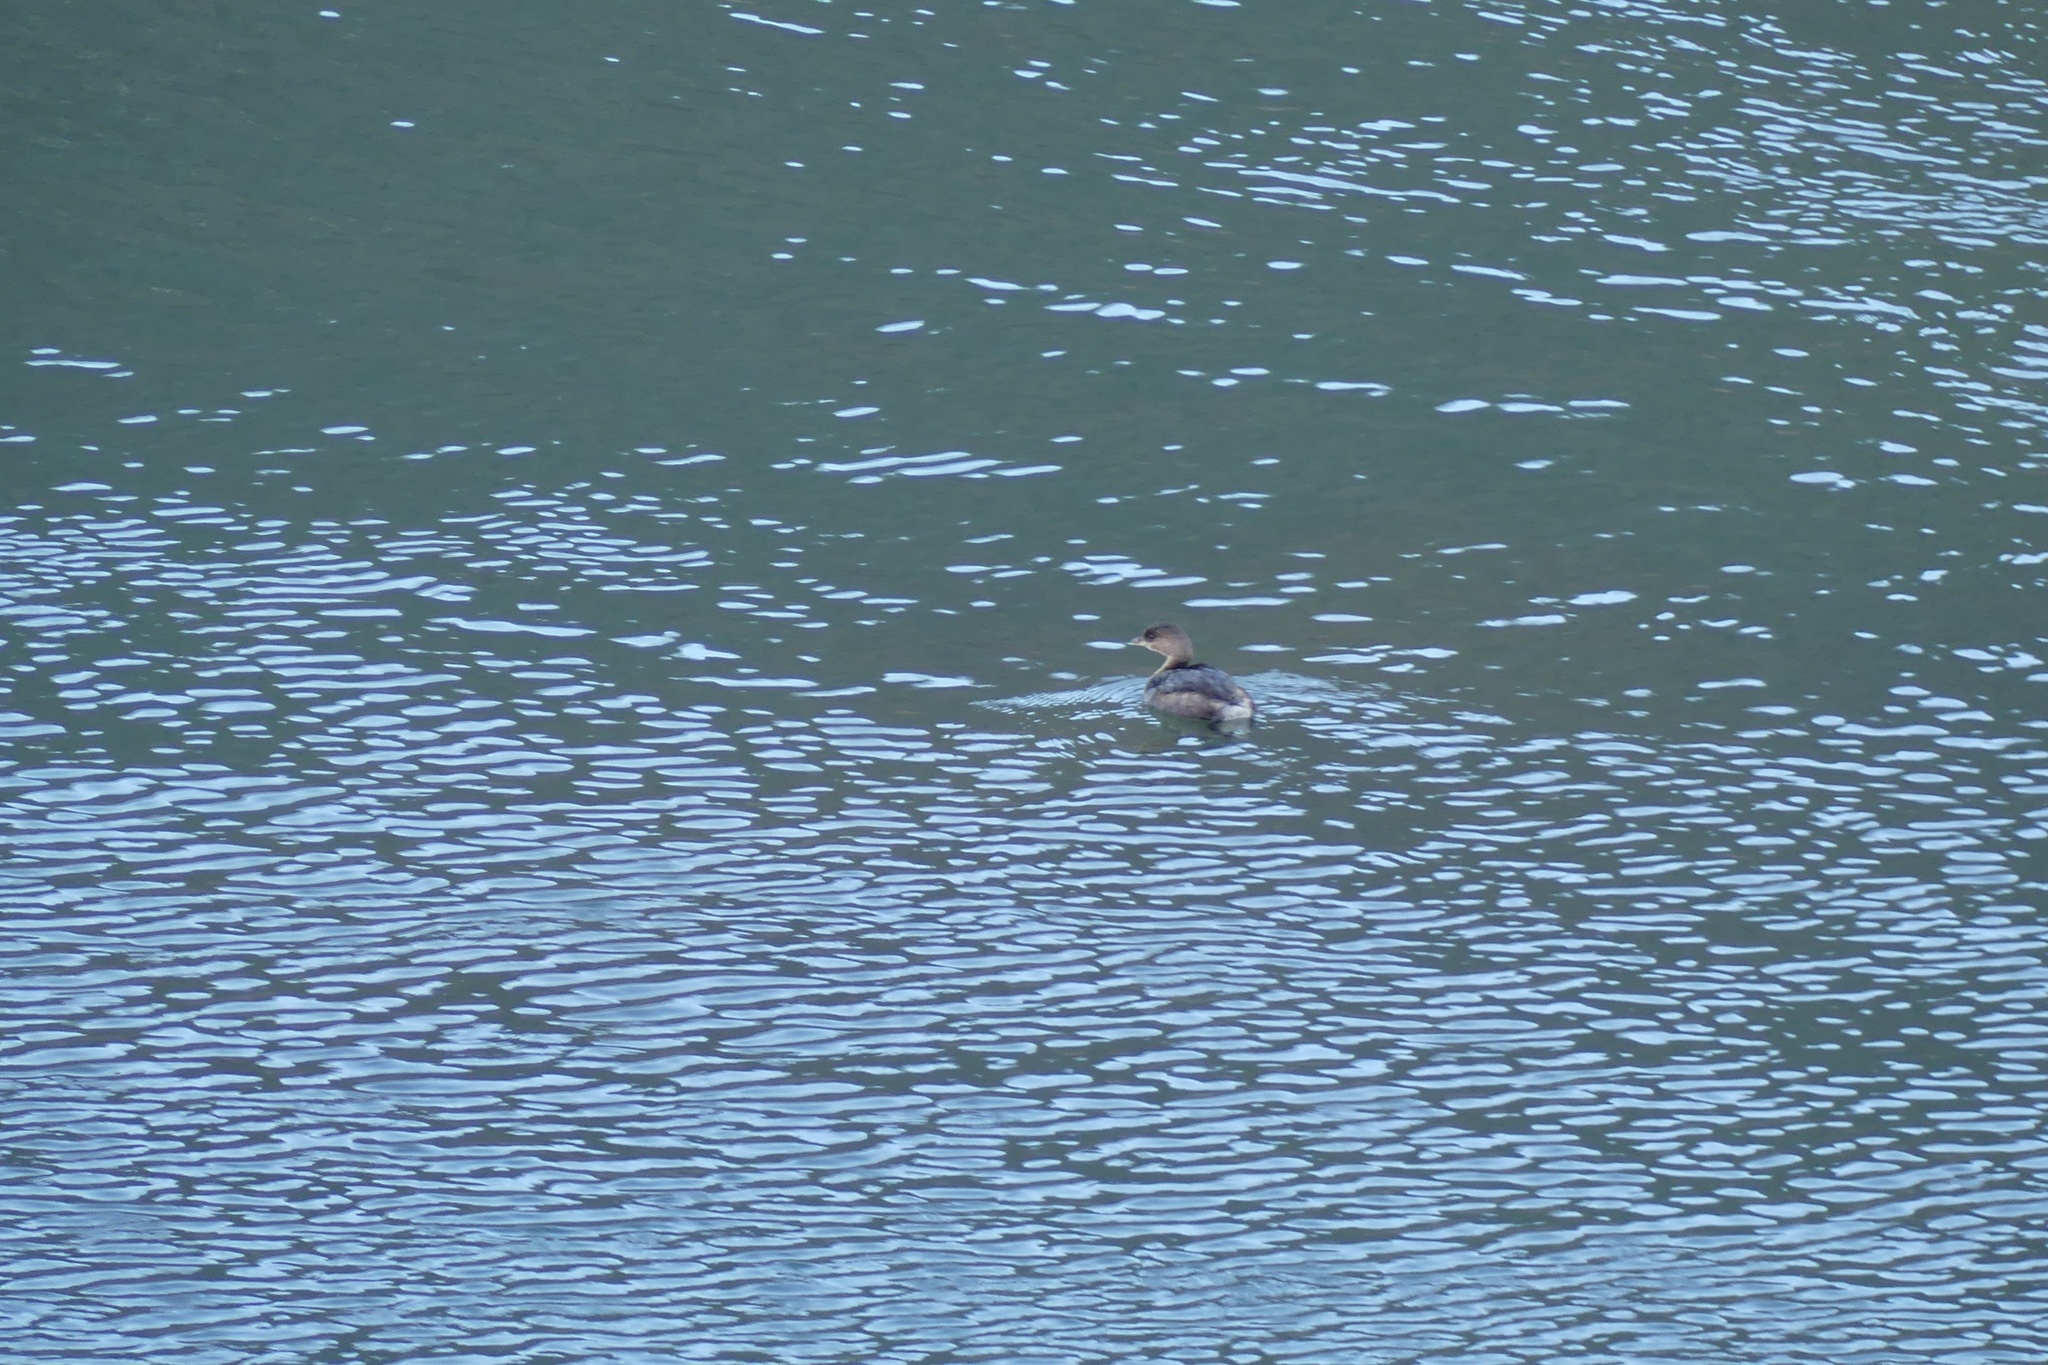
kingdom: Animalia
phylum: Chordata
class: Aves
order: Podicipediformes
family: Podicipedidae
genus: Podilymbus
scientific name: Podilymbus podiceps
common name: Pied-billed grebe
